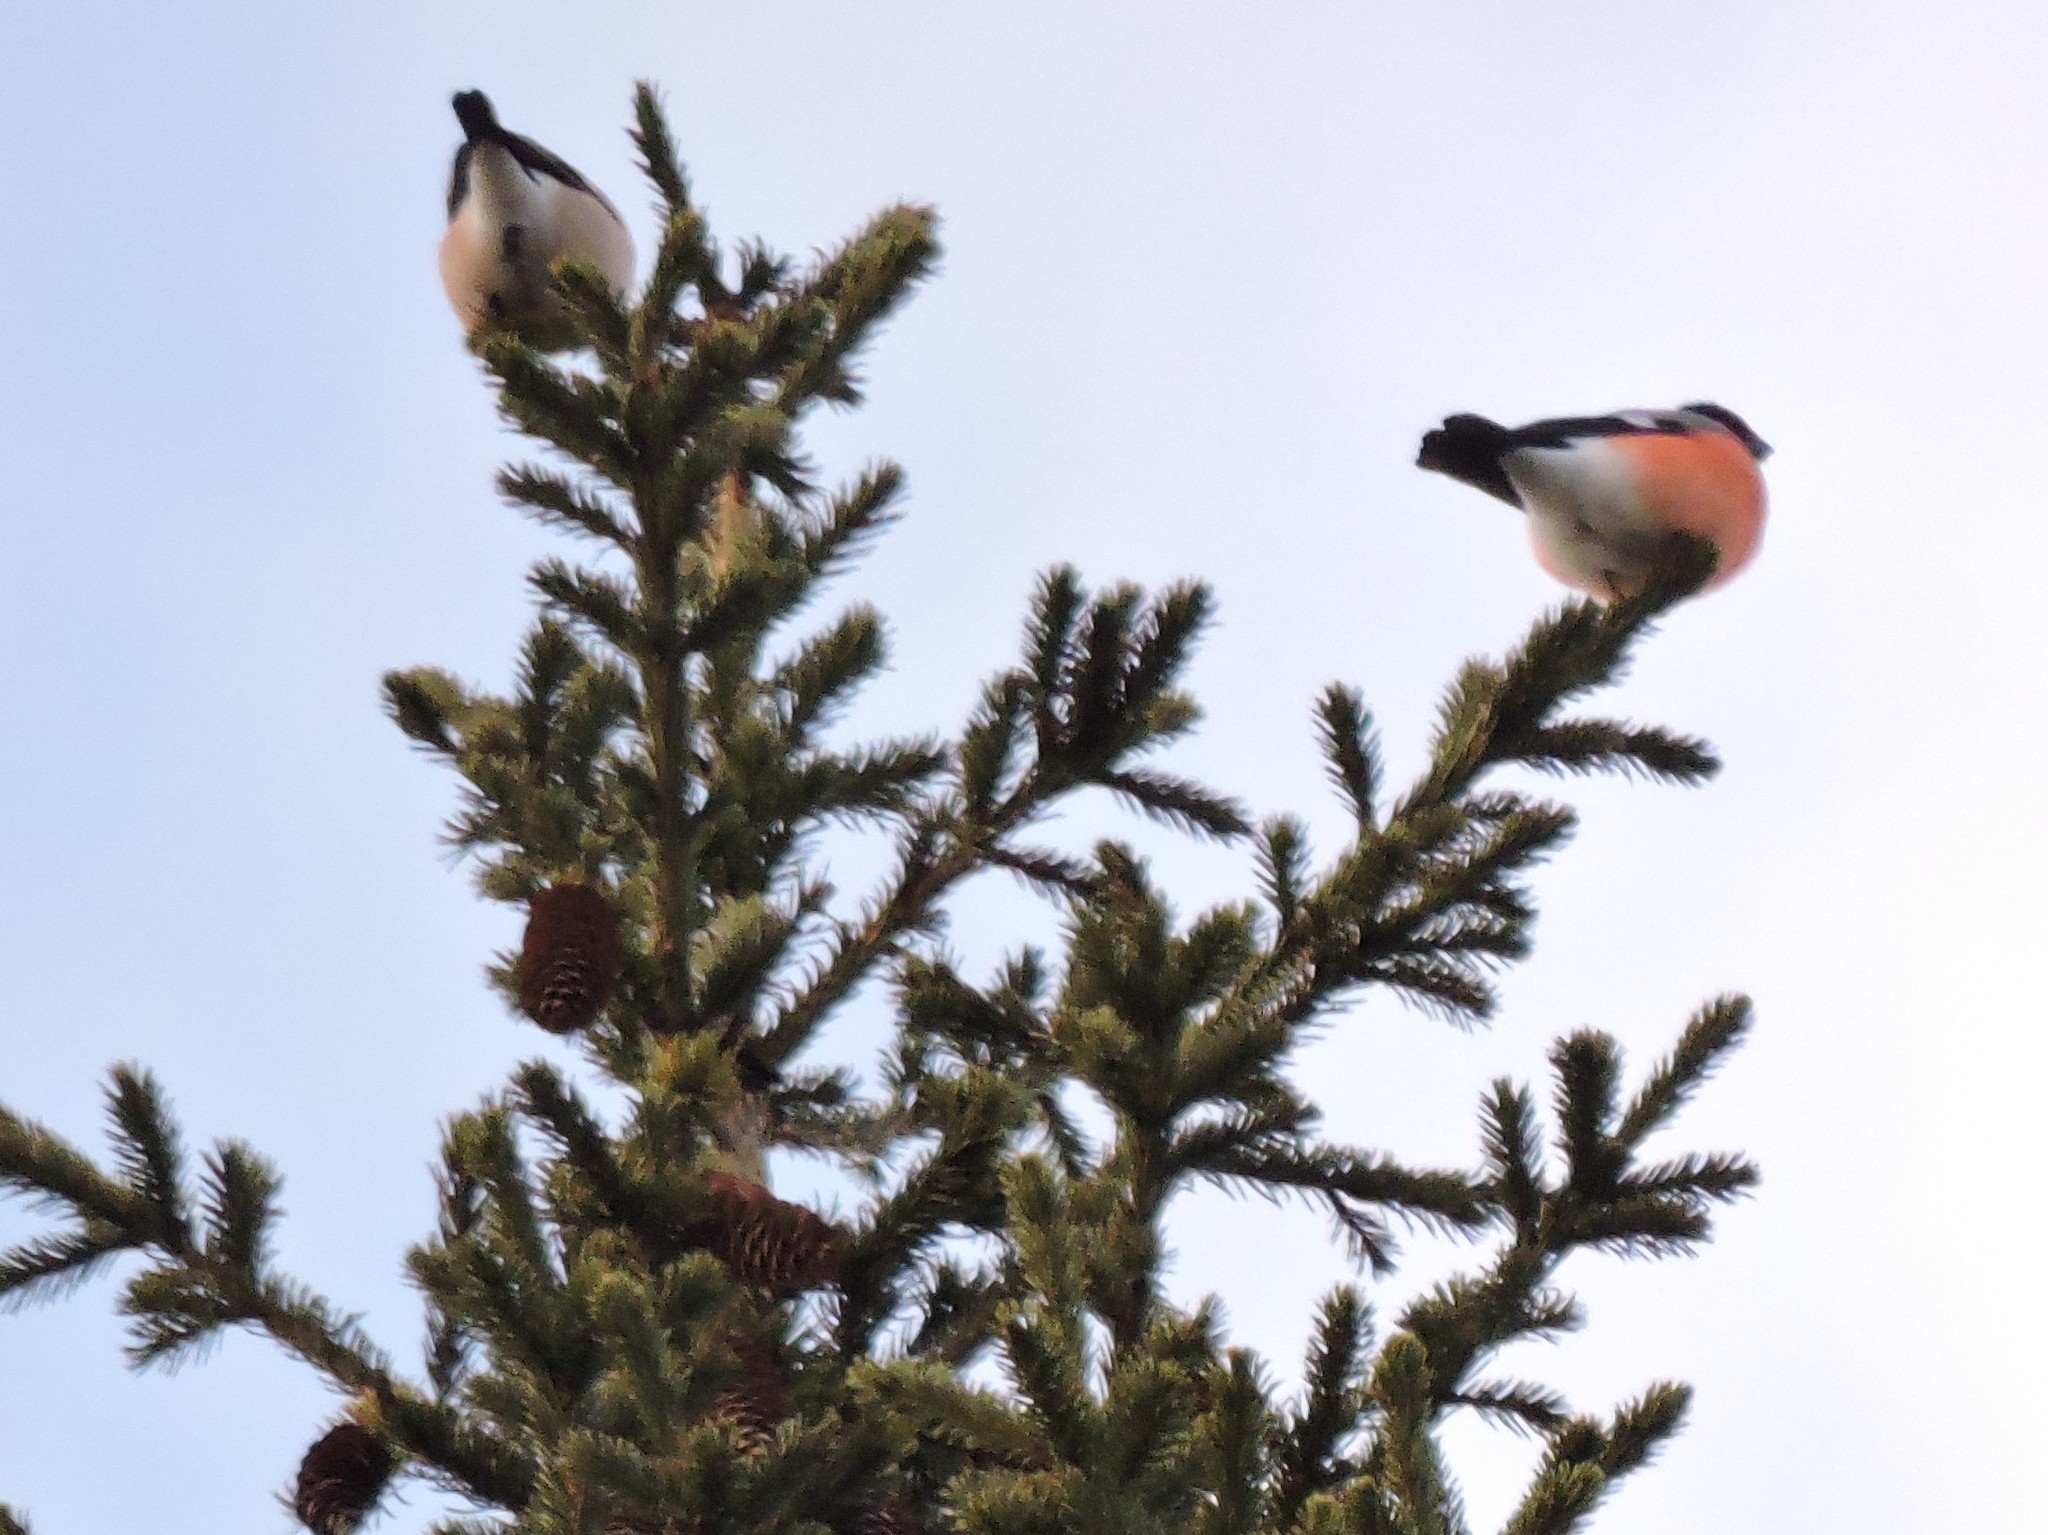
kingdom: Animalia
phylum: Chordata
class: Aves
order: Passeriformes
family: Fringillidae
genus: Pyrrhula
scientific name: Pyrrhula pyrrhula
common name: Eurasian bullfinch
